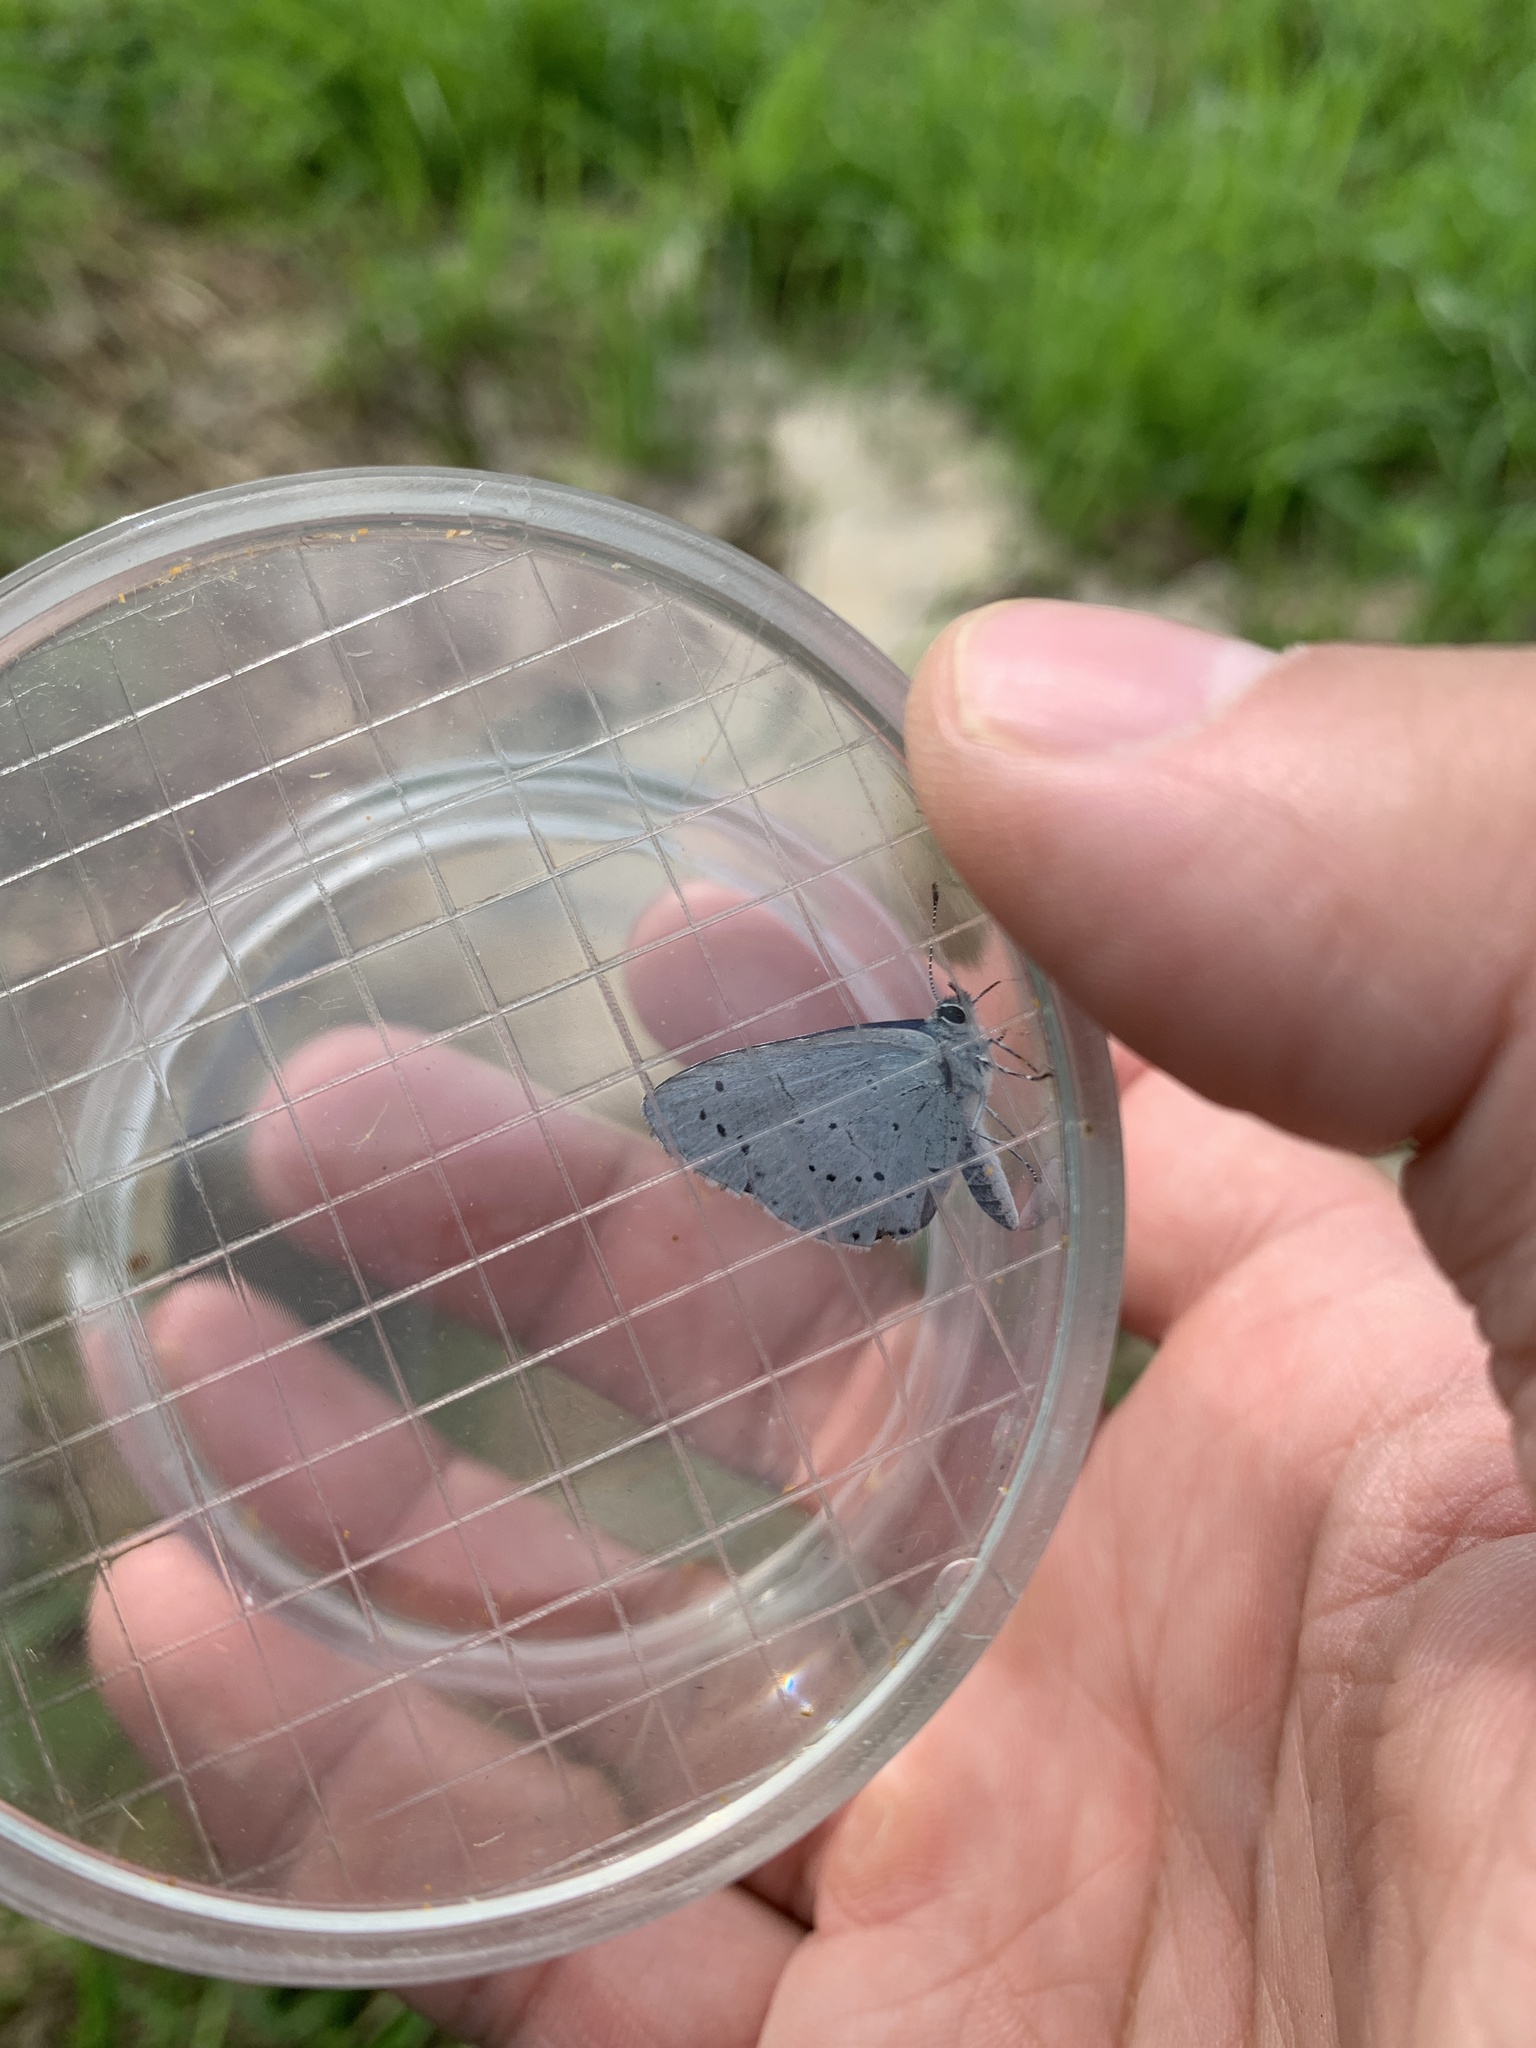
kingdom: Animalia
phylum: Arthropoda
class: Insecta
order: Lepidoptera
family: Lycaenidae
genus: Cupido
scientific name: Cupido minimus
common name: Small blue
